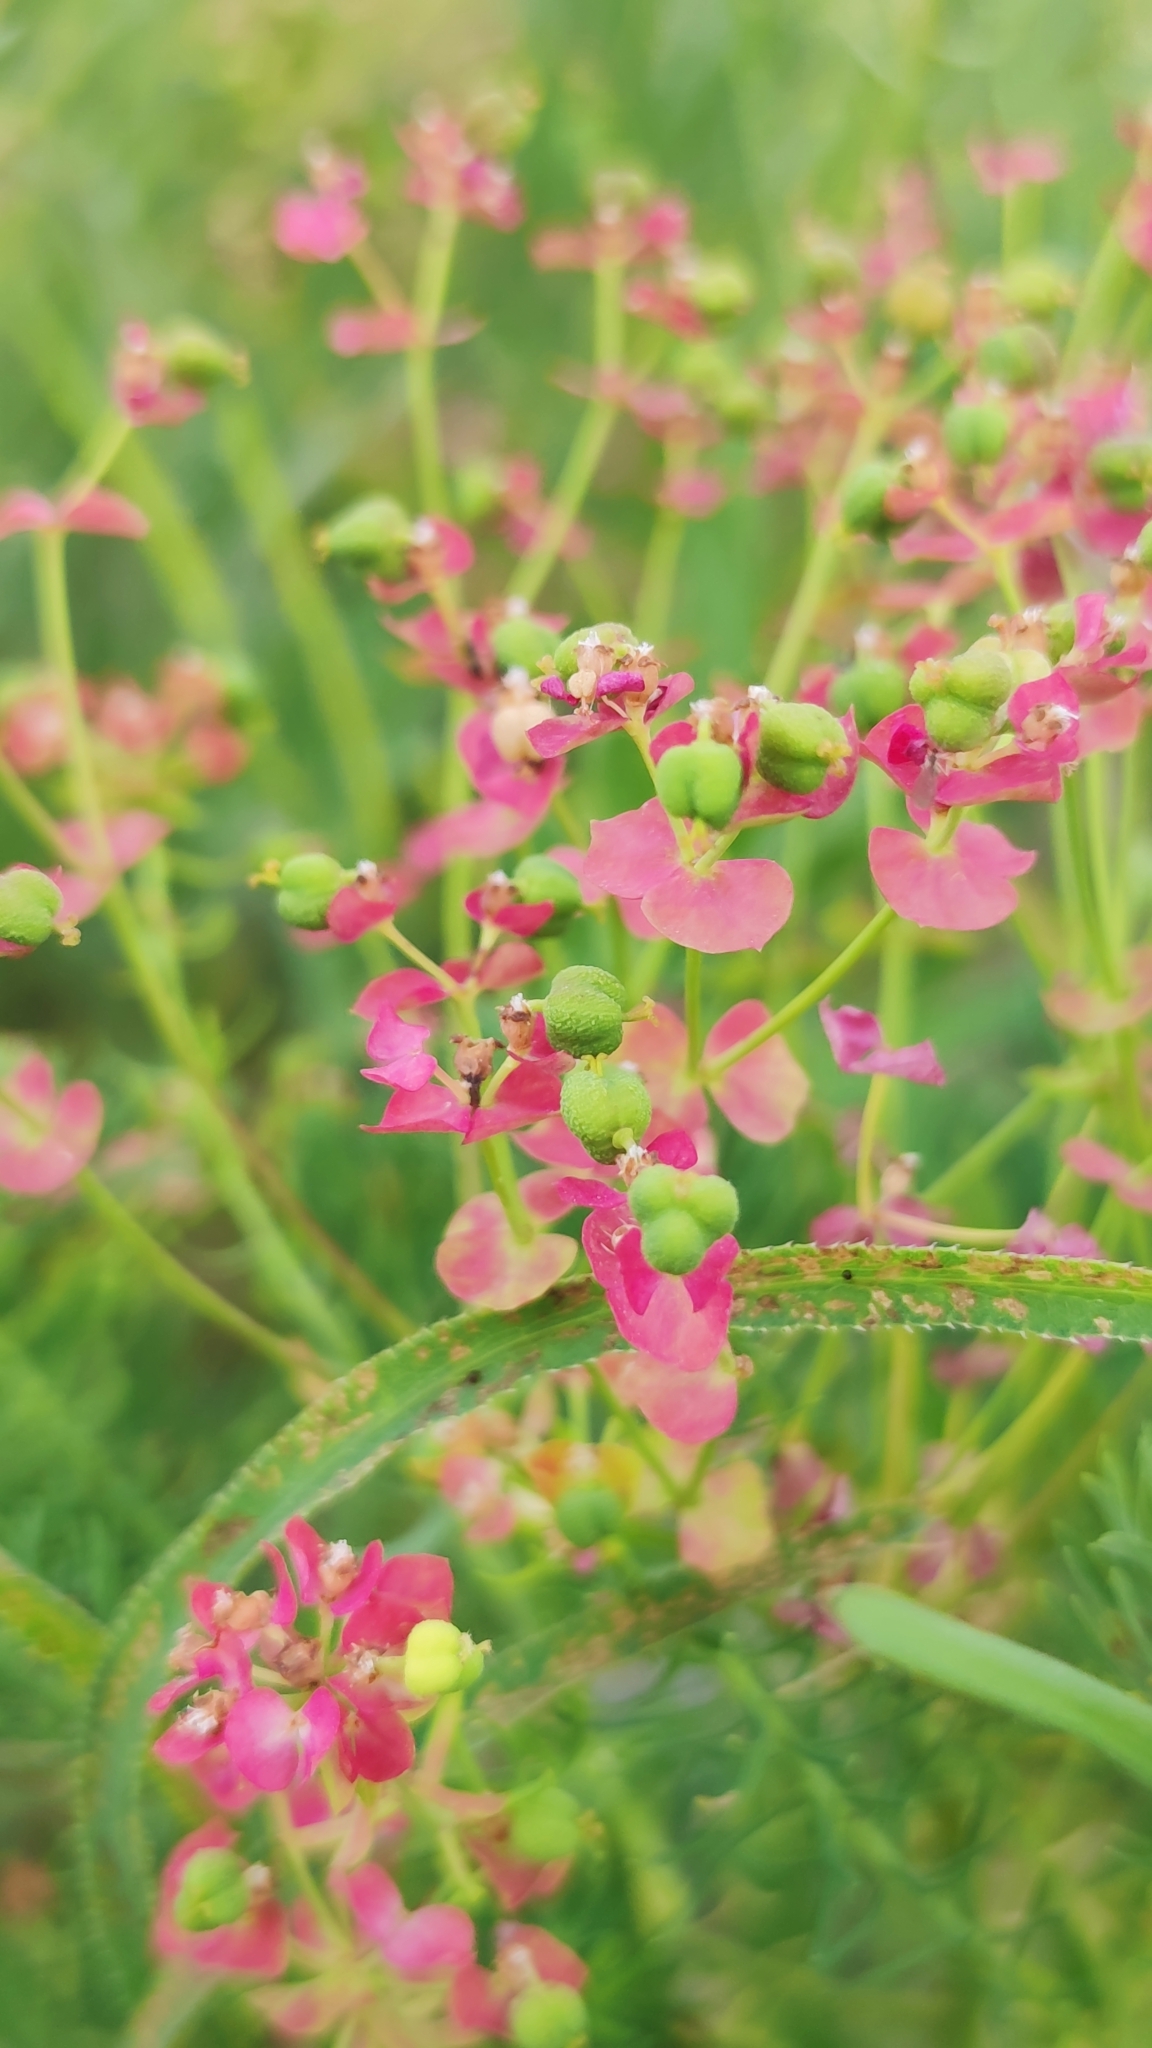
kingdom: Plantae
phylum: Tracheophyta
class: Magnoliopsida
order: Malpighiales
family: Euphorbiaceae
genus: Euphorbia
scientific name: Euphorbia cyparissias
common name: Cypress spurge
